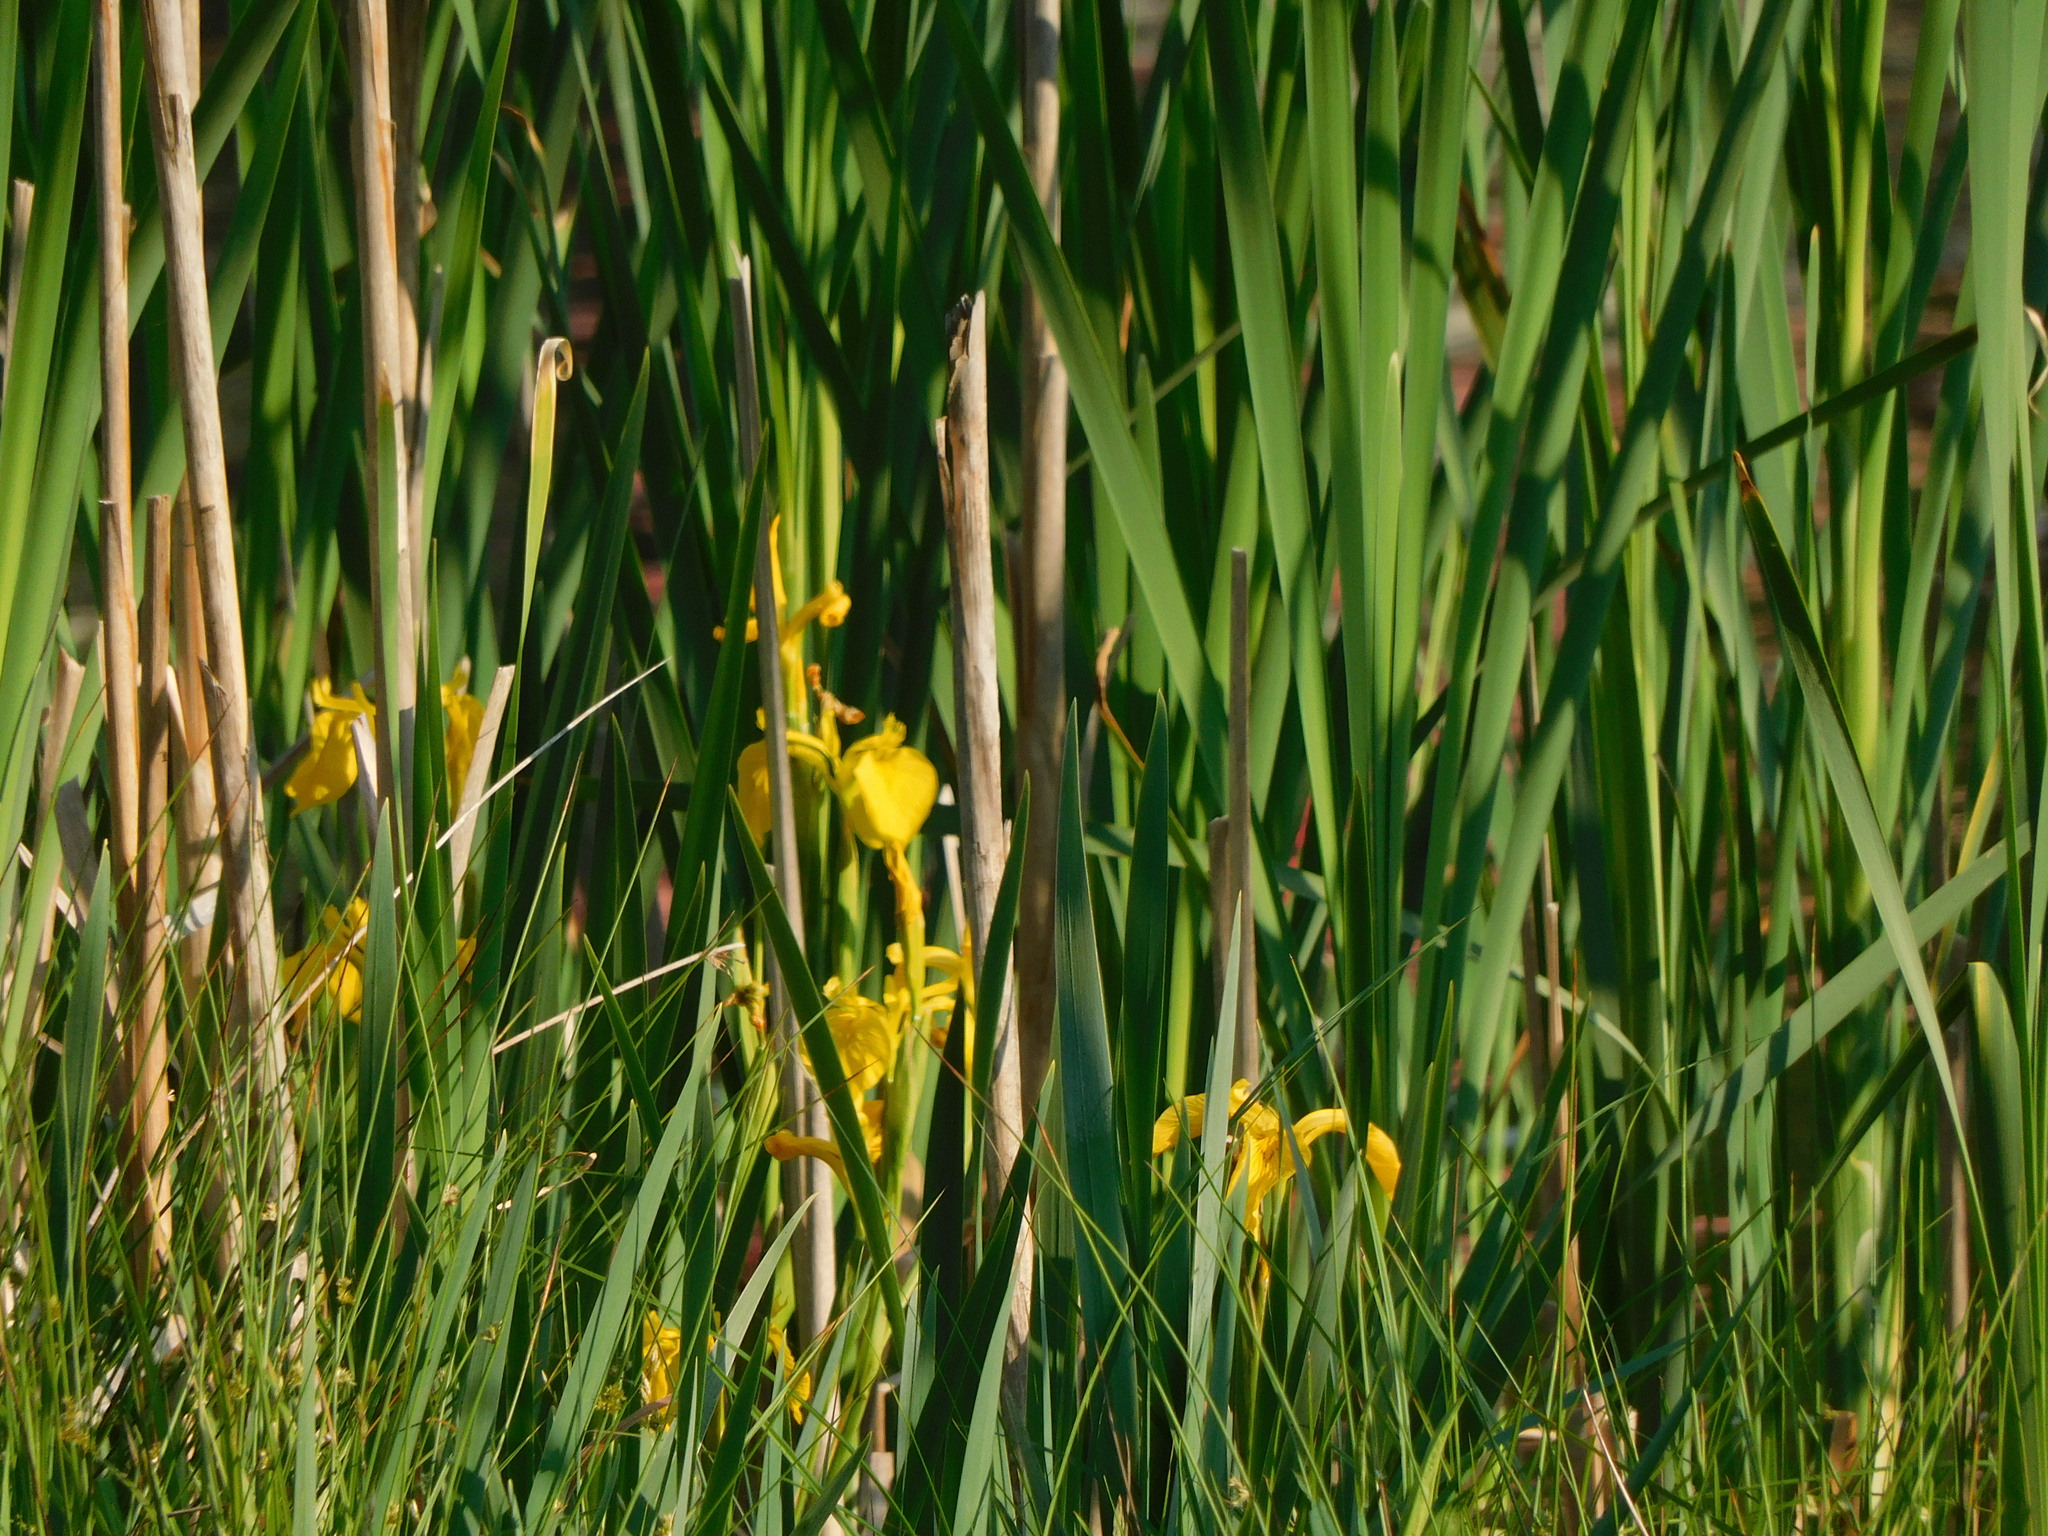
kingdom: Plantae
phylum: Tracheophyta
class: Liliopsida
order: Asparagales
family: Iridaceae
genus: Iris
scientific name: Iris pseudacorus
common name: Yellow flag
